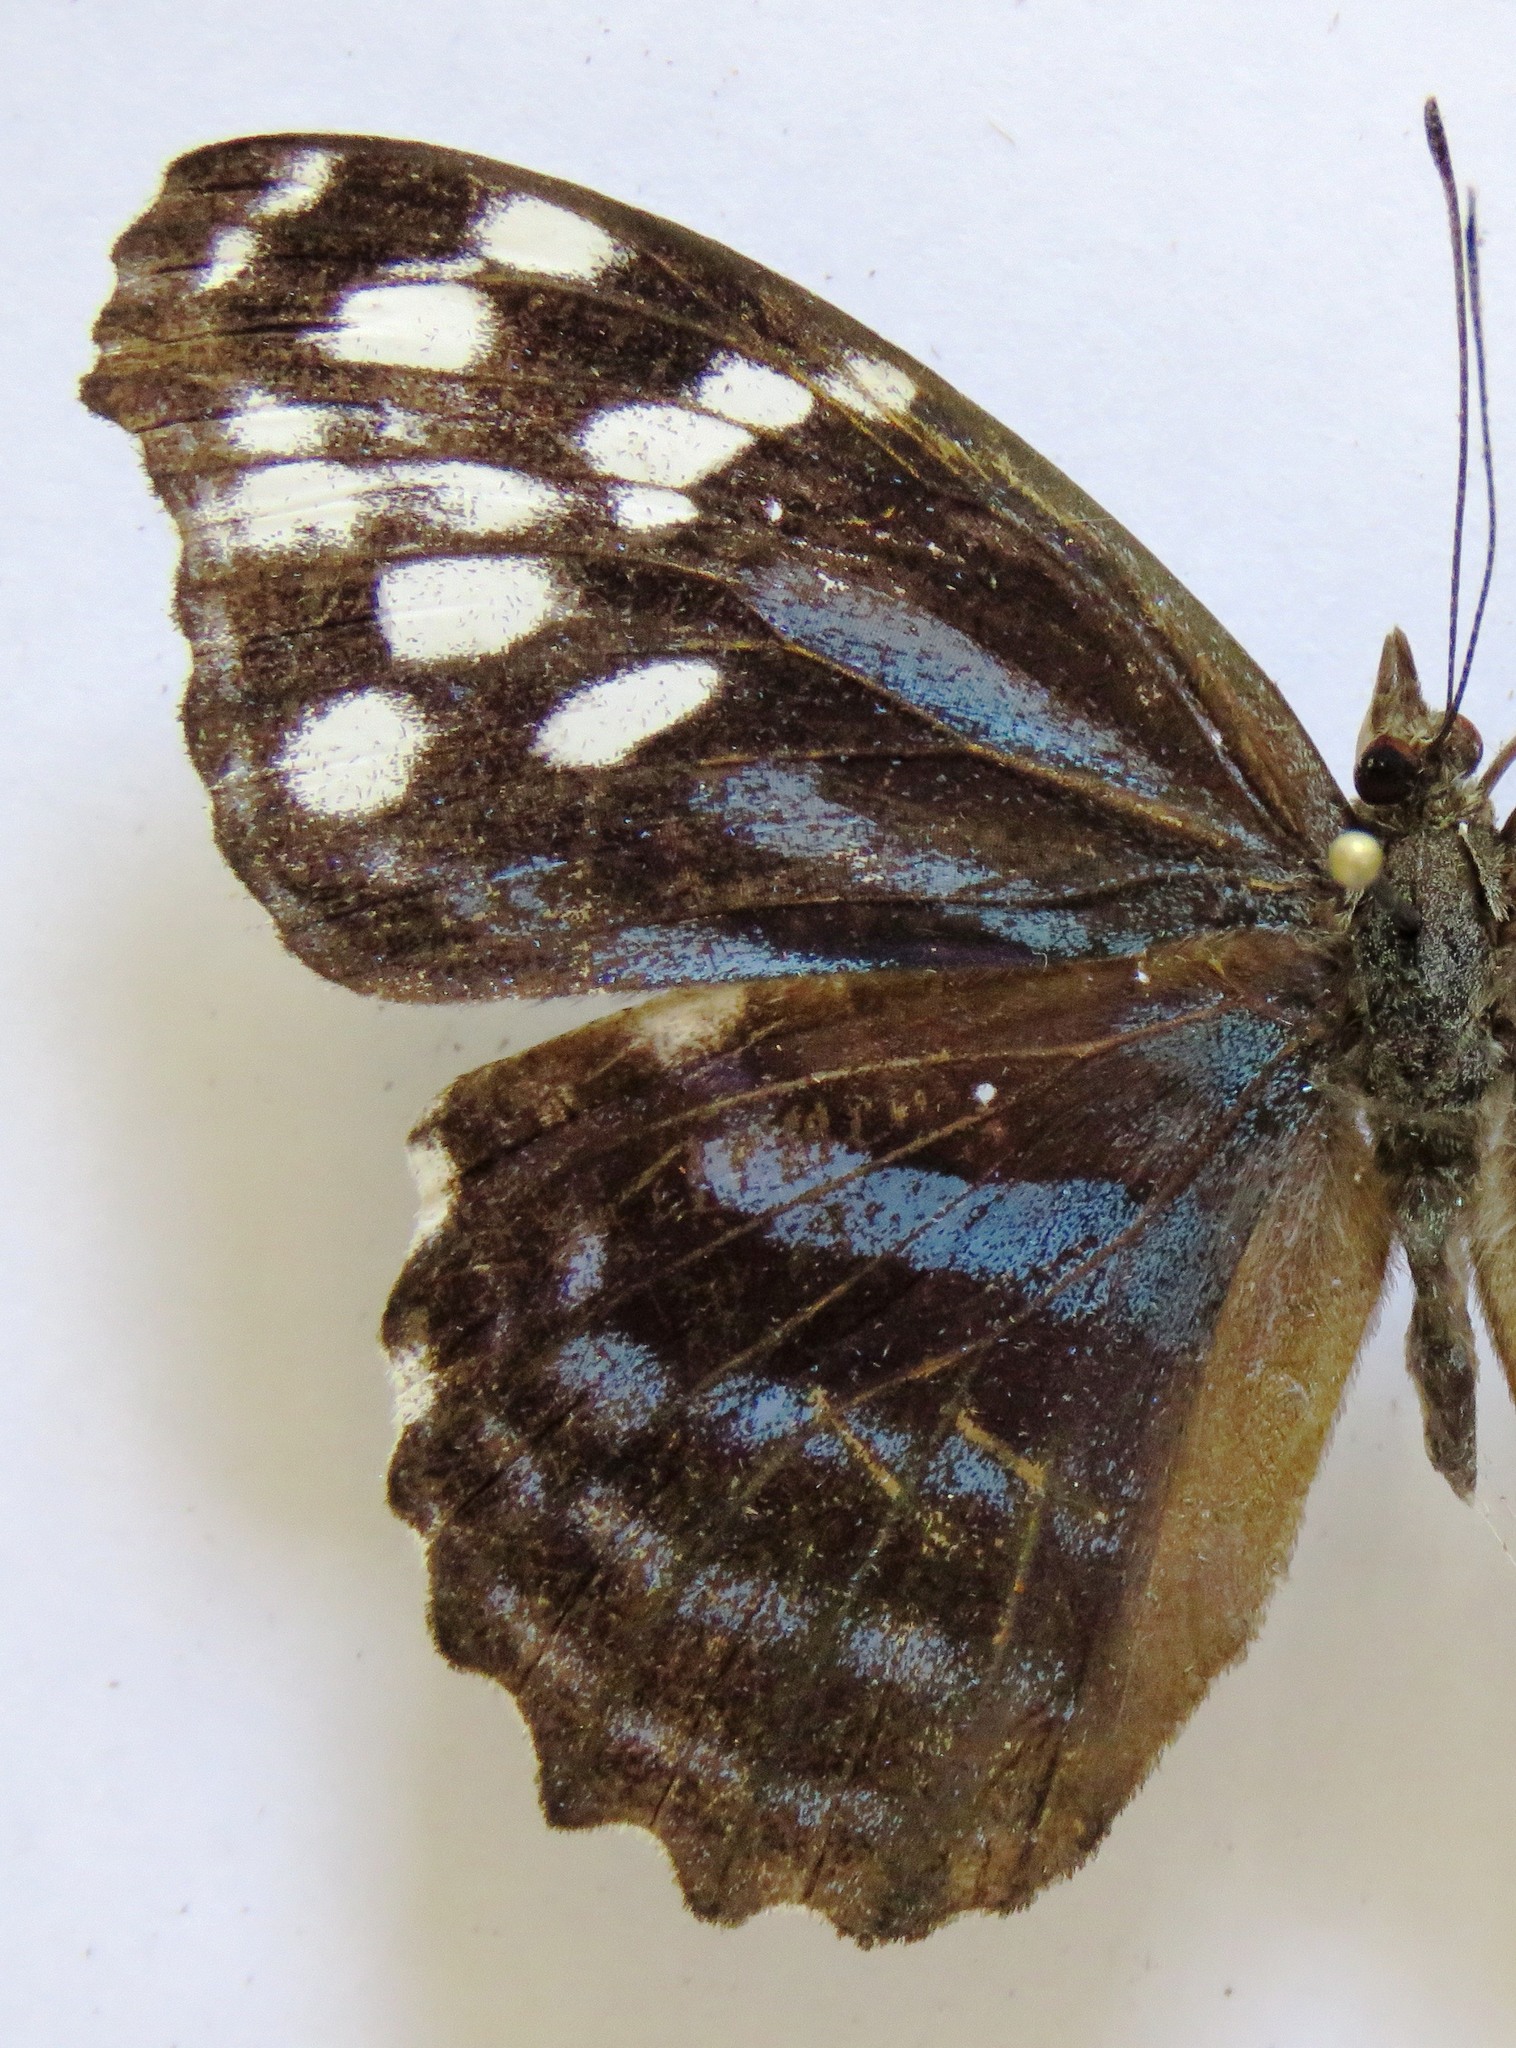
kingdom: Animalia
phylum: Arthropoda
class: Insecta
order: Lepidoptera
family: Nymphalidae
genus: Myscelia
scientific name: Myscelia ethusa
